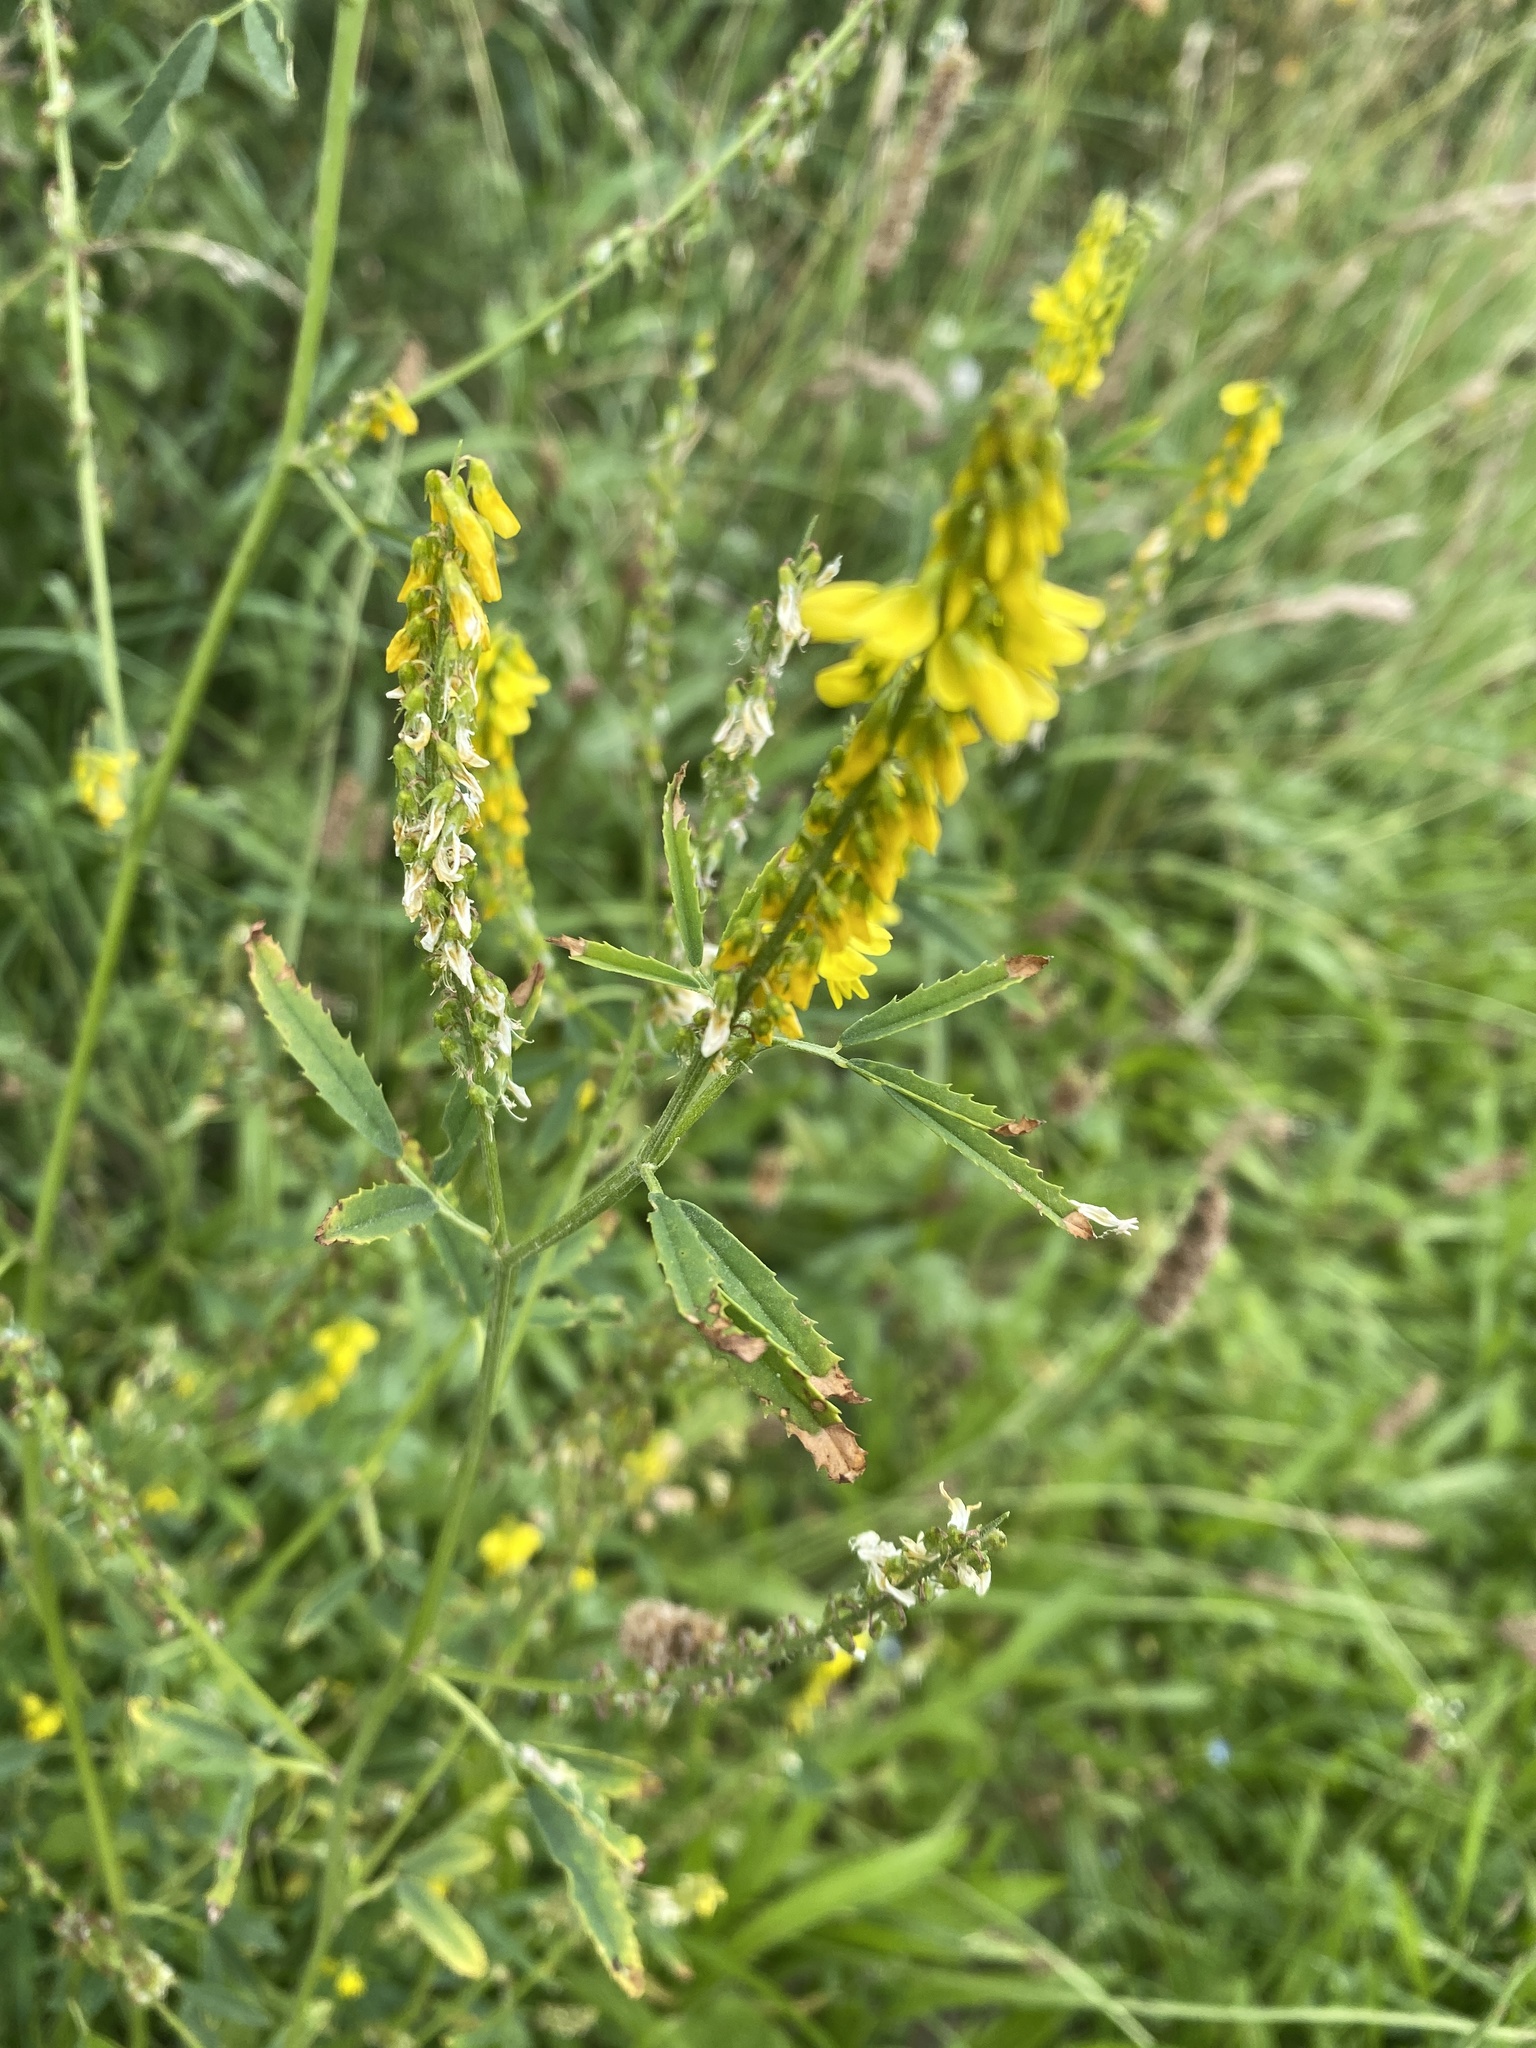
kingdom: Plantae
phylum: Tracheophyta
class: Magnoliopsida
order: Fabales
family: Fabaceae
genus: Melilotus
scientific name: Melilotus officinalis
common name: Sweetclover
